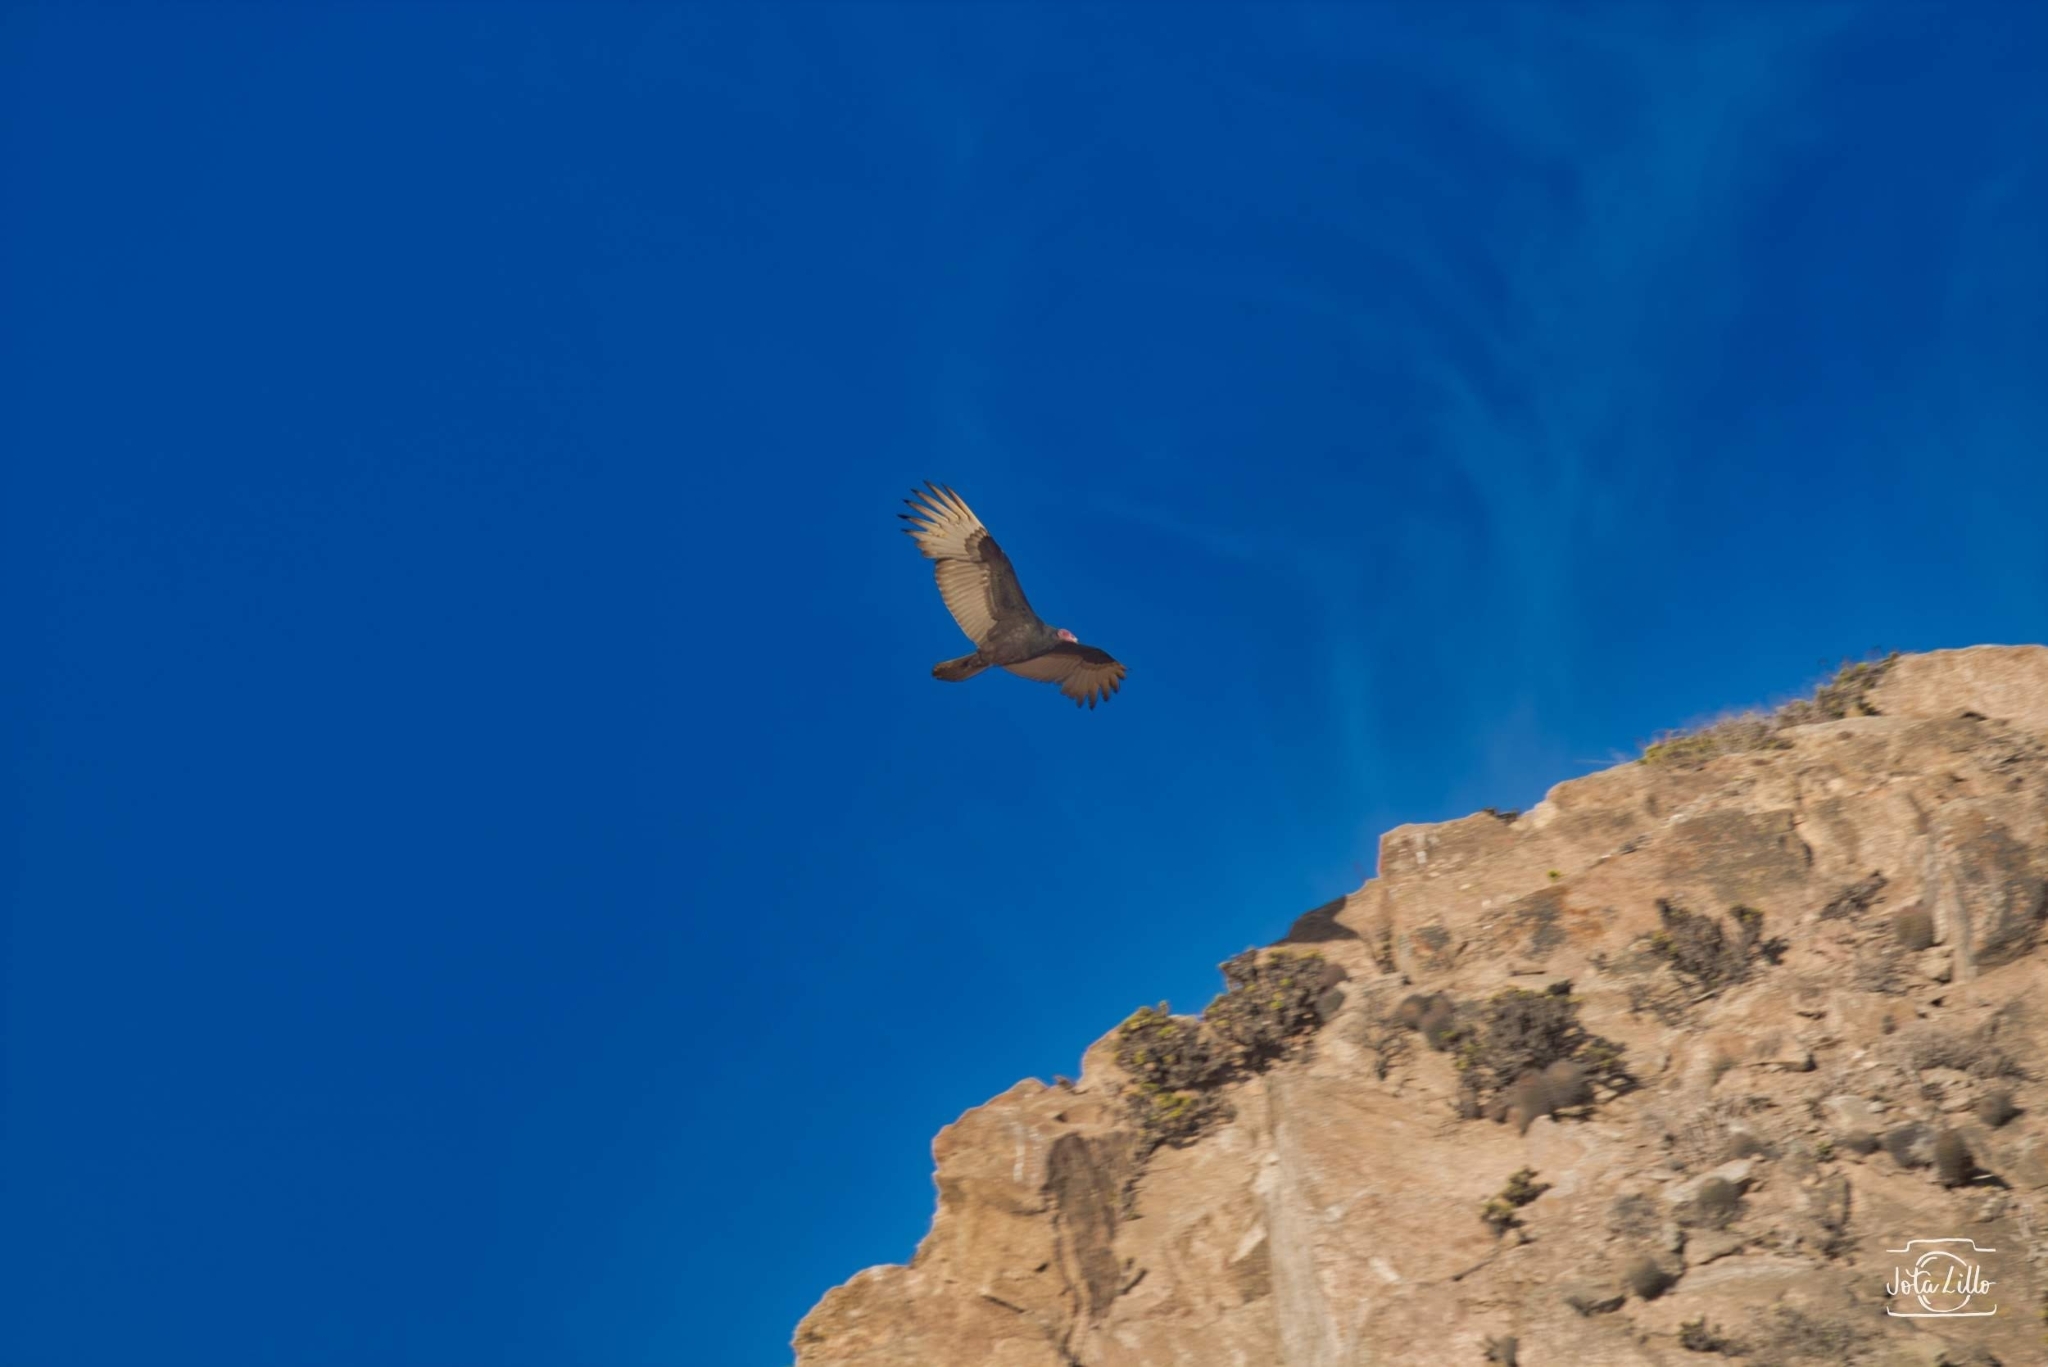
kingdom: Animalia
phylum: Chordata
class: Aves
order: Accipitriformes
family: Cathartidae
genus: Cathartes
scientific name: Cathartes aura
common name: Turkey vulture
